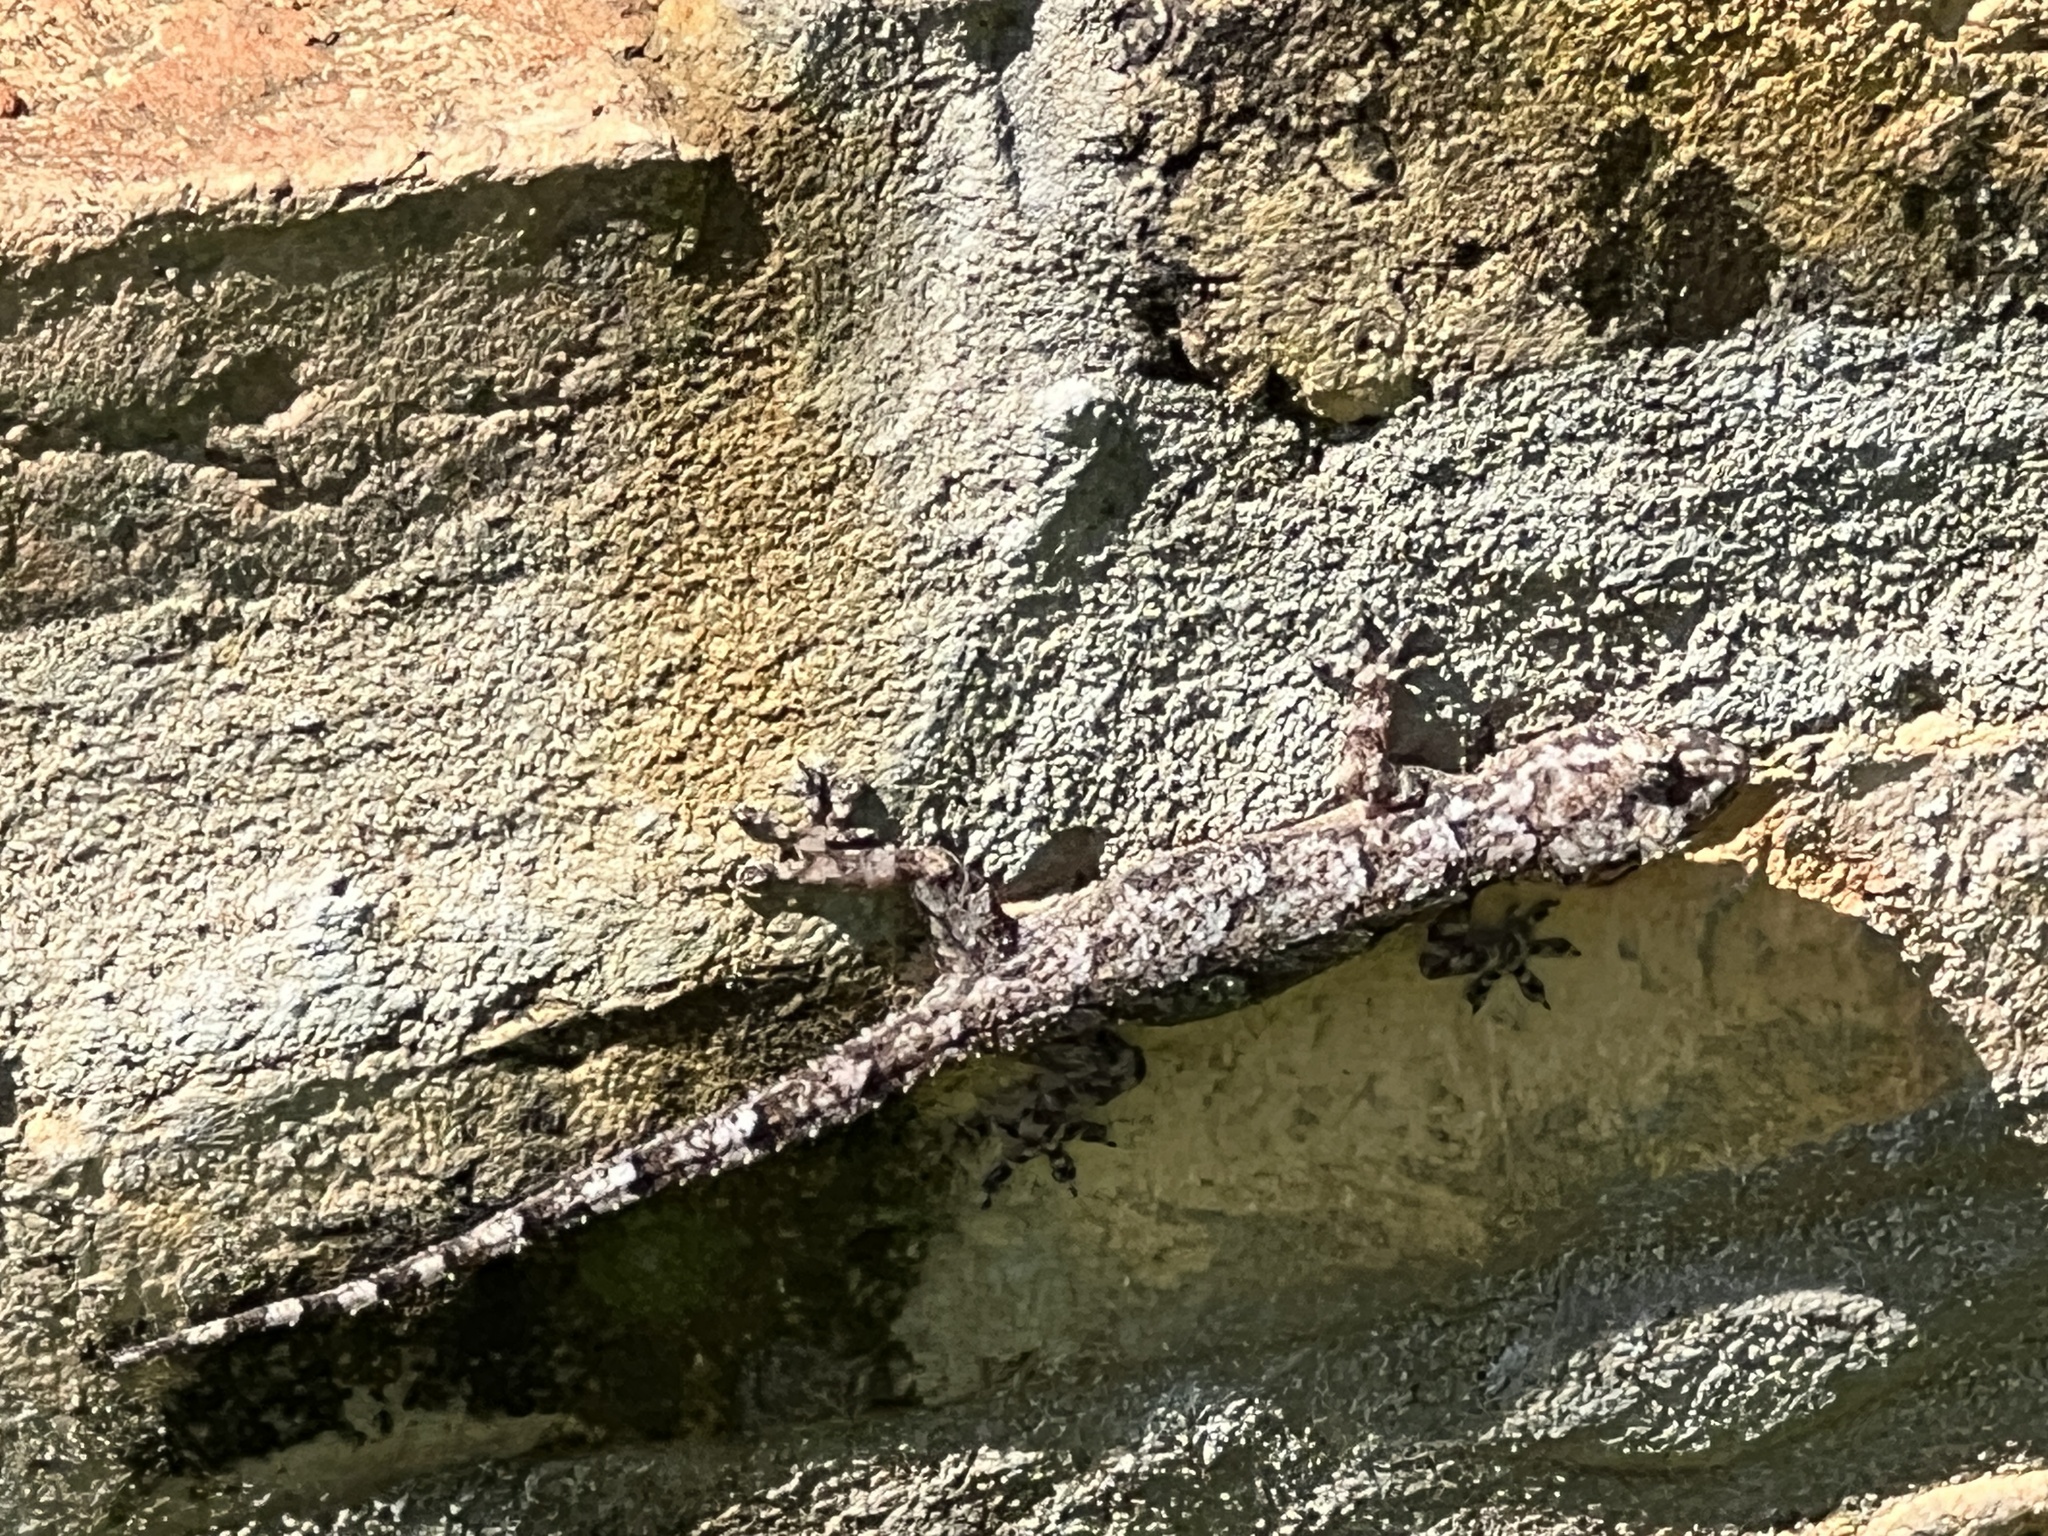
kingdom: Animalia
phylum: Chordata
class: Squamata
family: Gekkonidae
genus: Hemidactylus
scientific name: Hemidactylus mabouia
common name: House gecko
